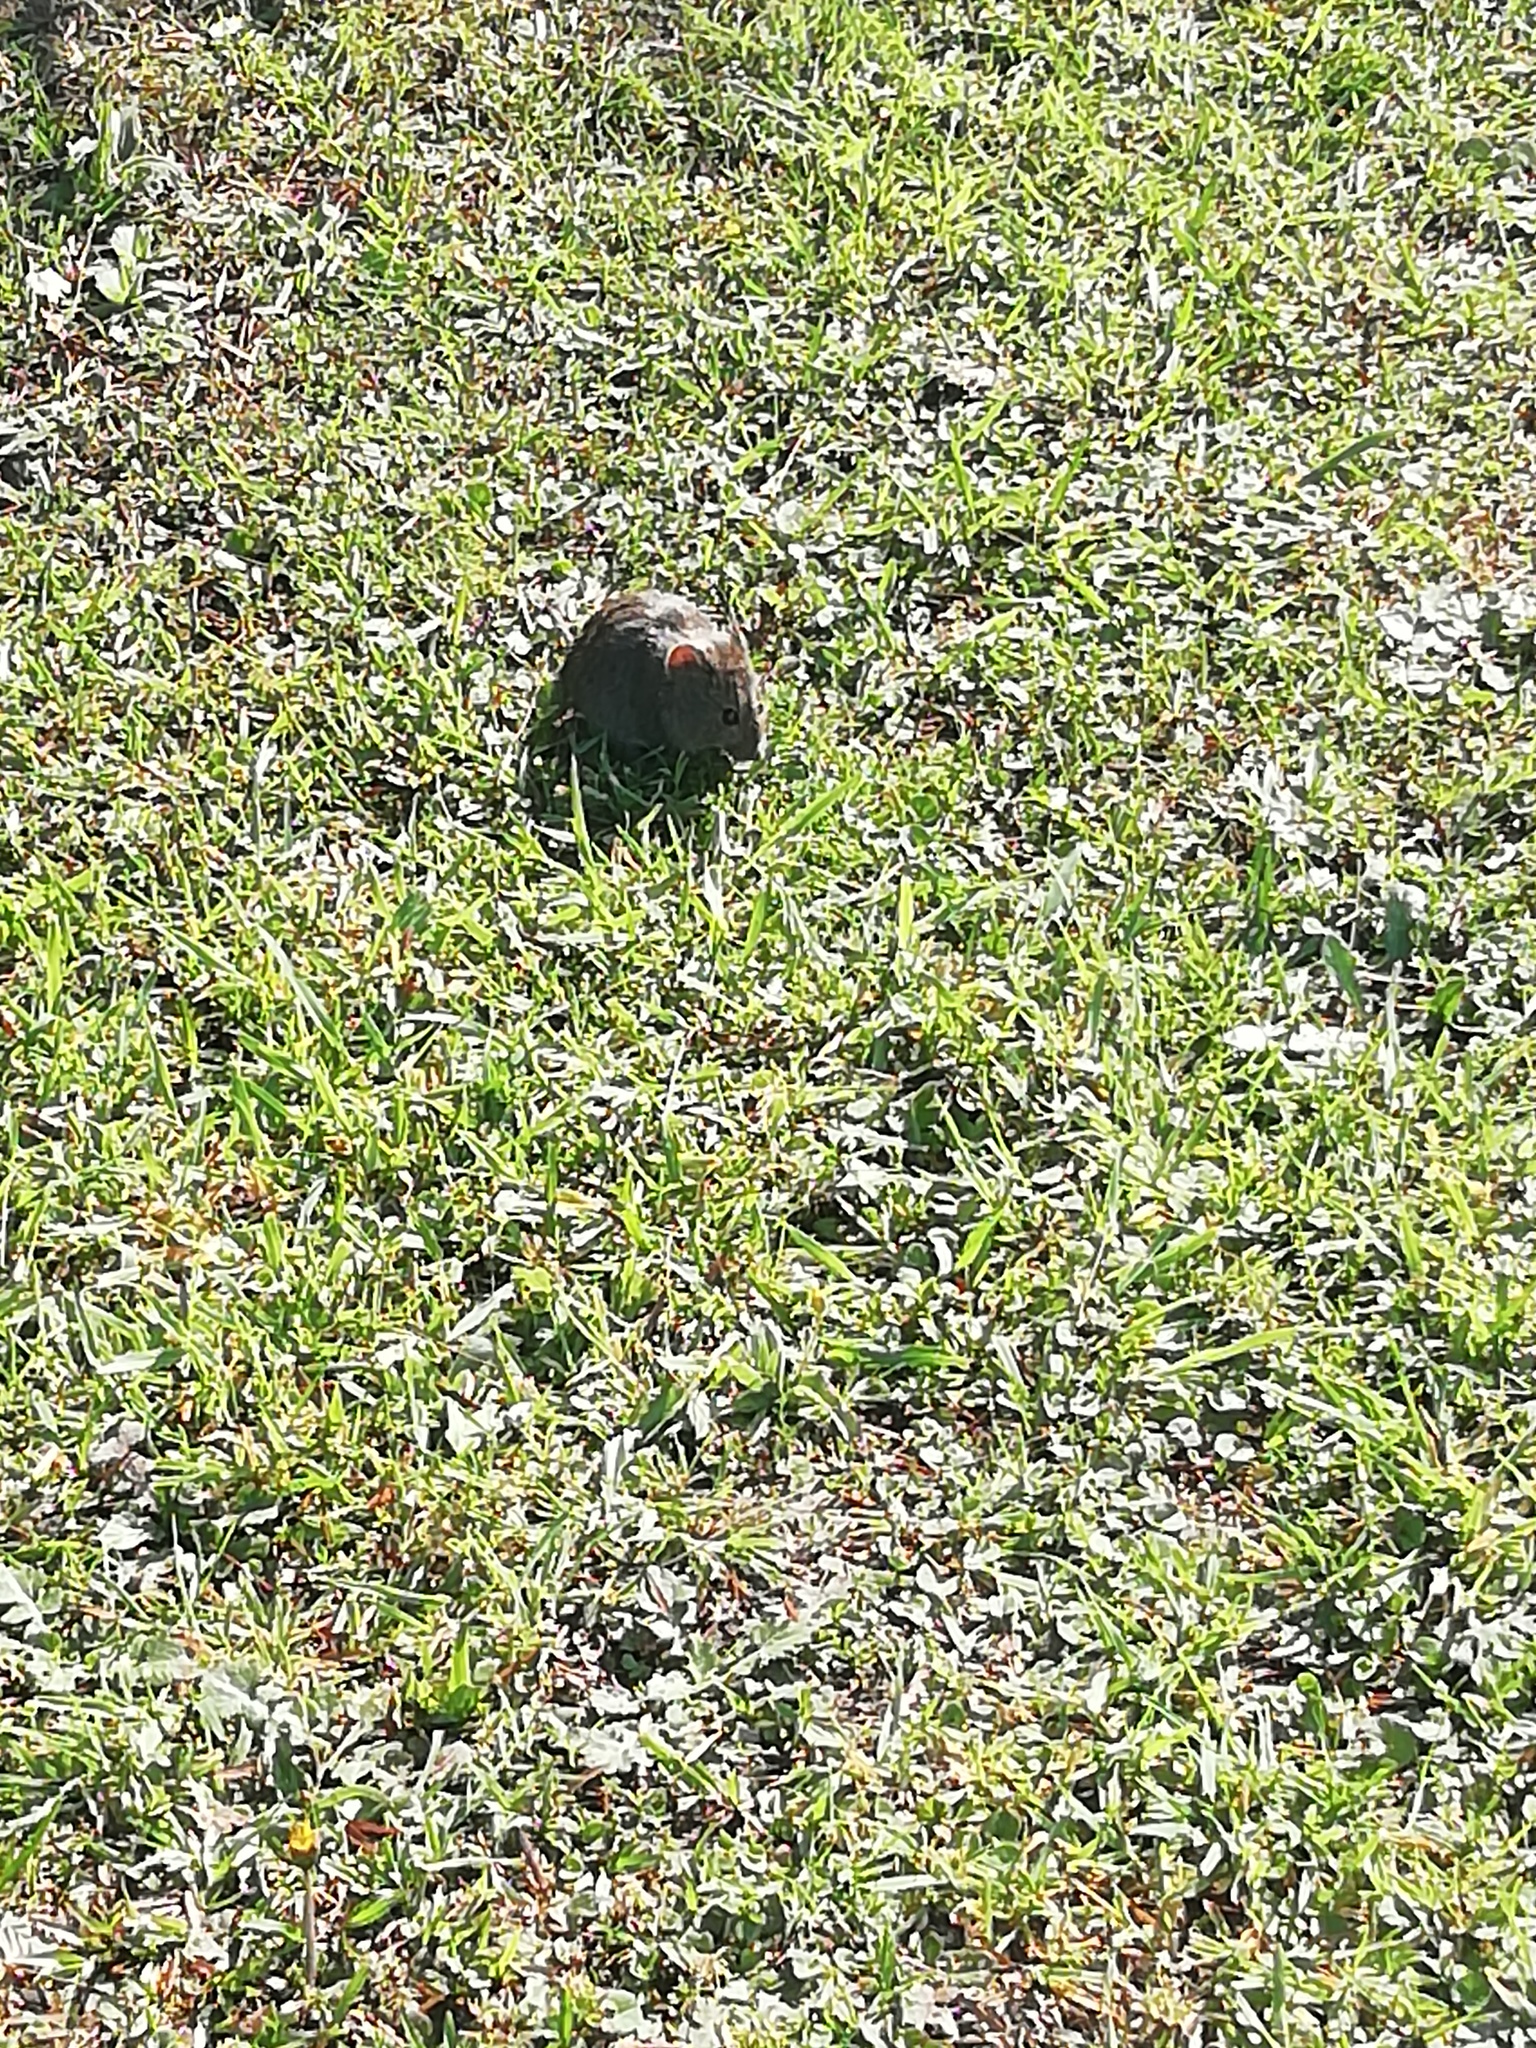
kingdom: Animalia
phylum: Chordata
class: Mammalia
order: Rodentia
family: Muridae
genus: Rhabdomys
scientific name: Rhabdomys pumilio
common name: Xeric four-striped grass rat
